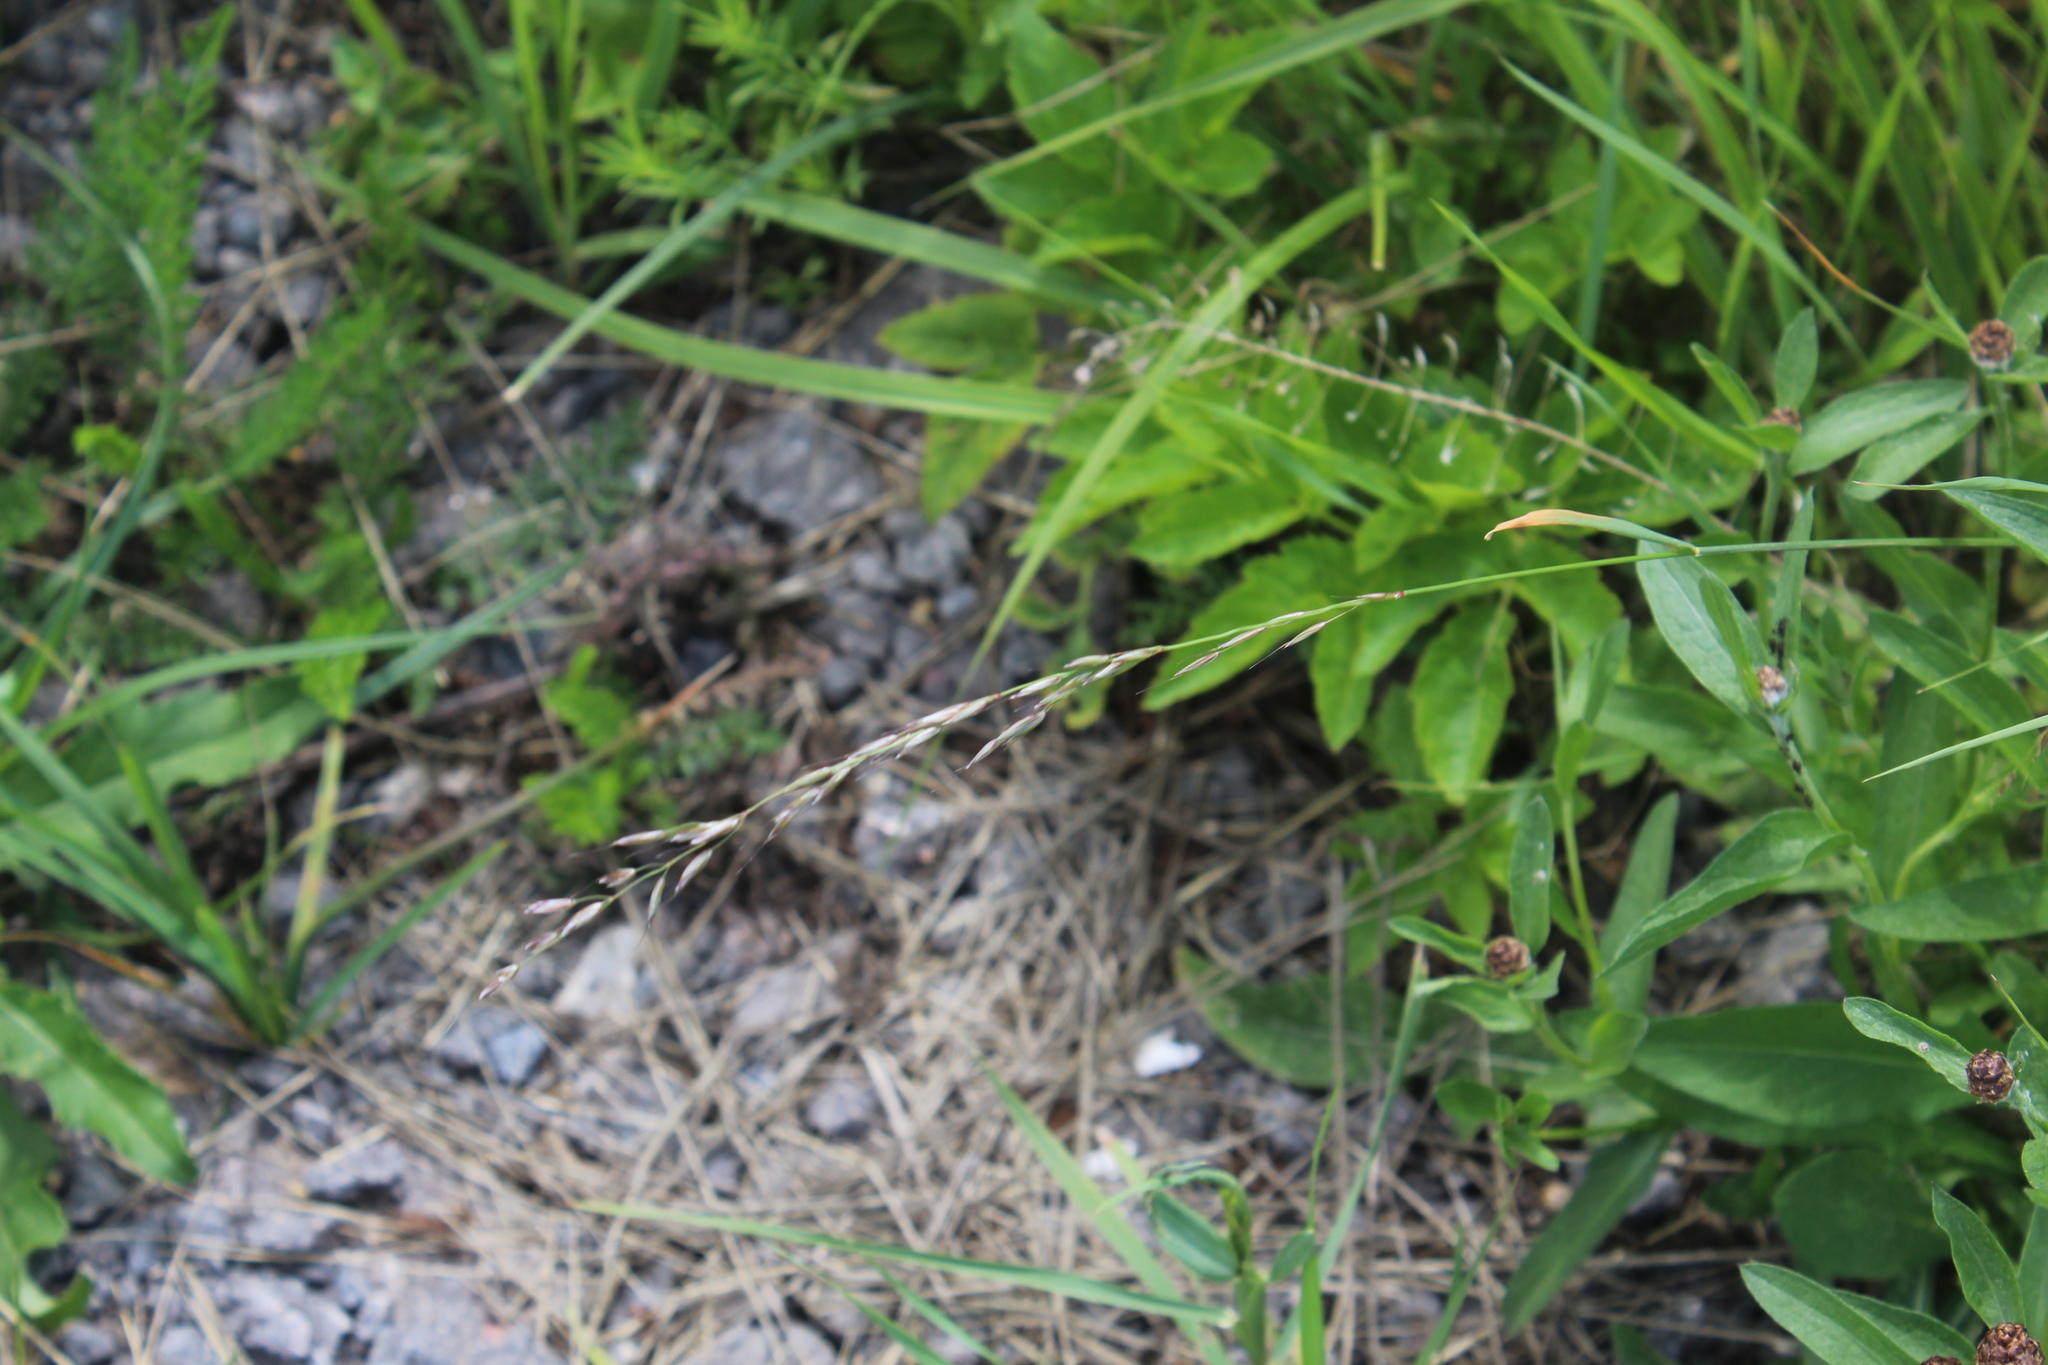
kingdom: Plantae
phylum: Tracheophyta
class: Liliopsida
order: Poales
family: Poaceae
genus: Arrhenatherum
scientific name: Arrhenatherum elatius
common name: Tall oatgrass
